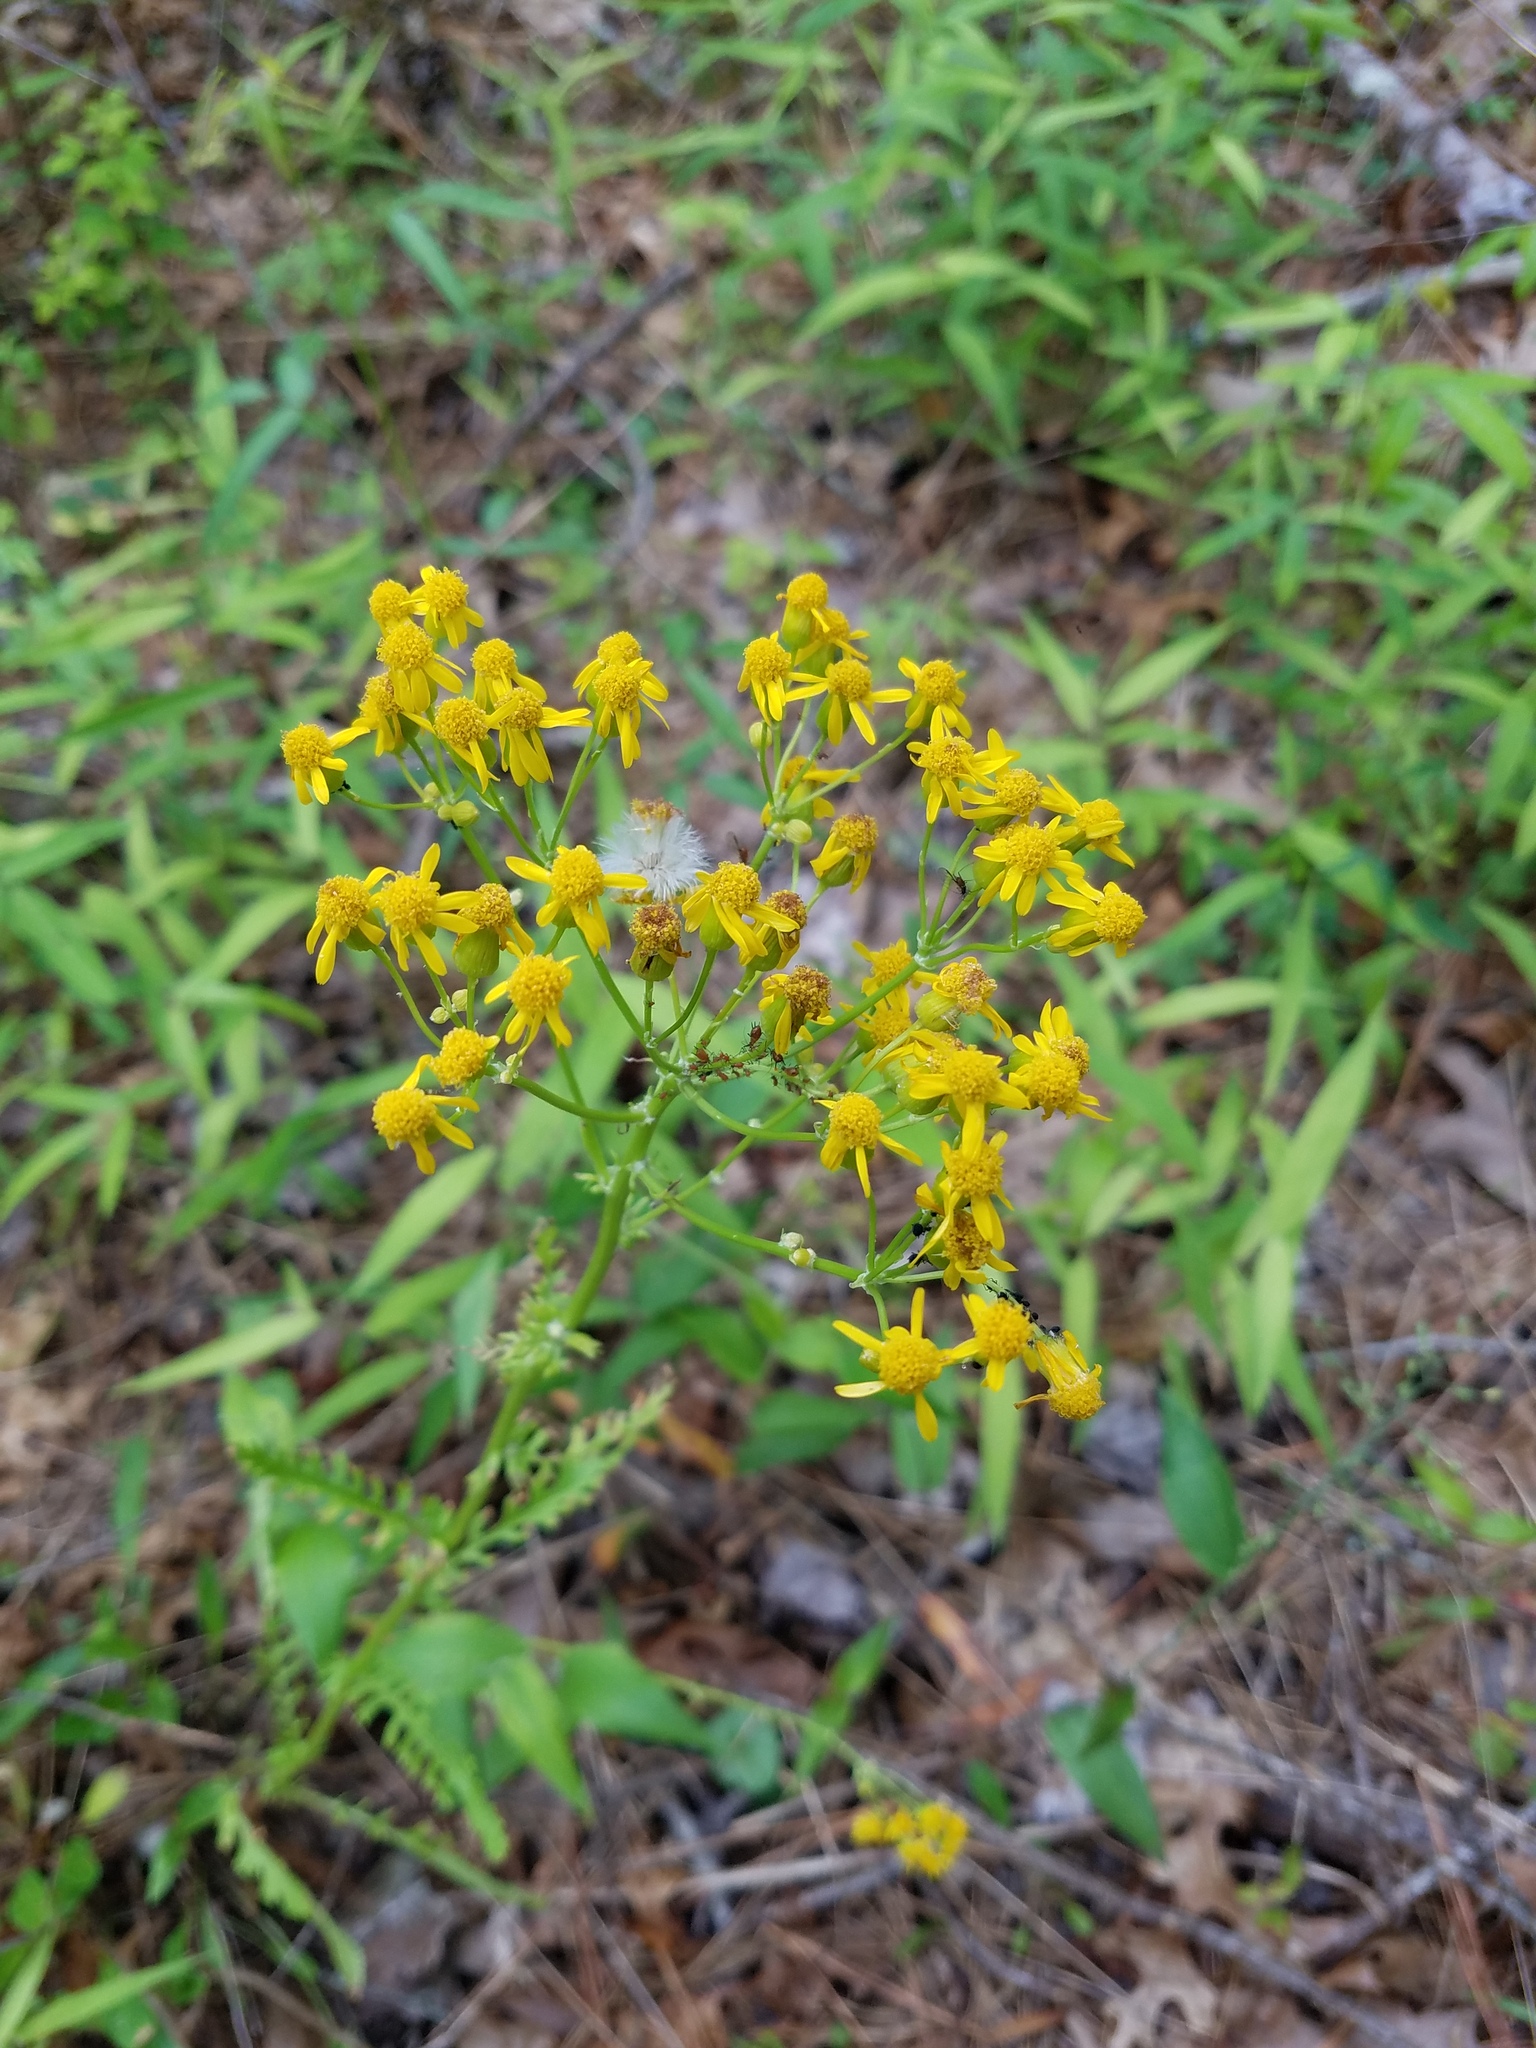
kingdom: Plantae
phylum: Tracheophyta
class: Magnoliopsida
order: Asterales
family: Asteraceae
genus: Packera
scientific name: Packera anonyma
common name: Small ragwort
